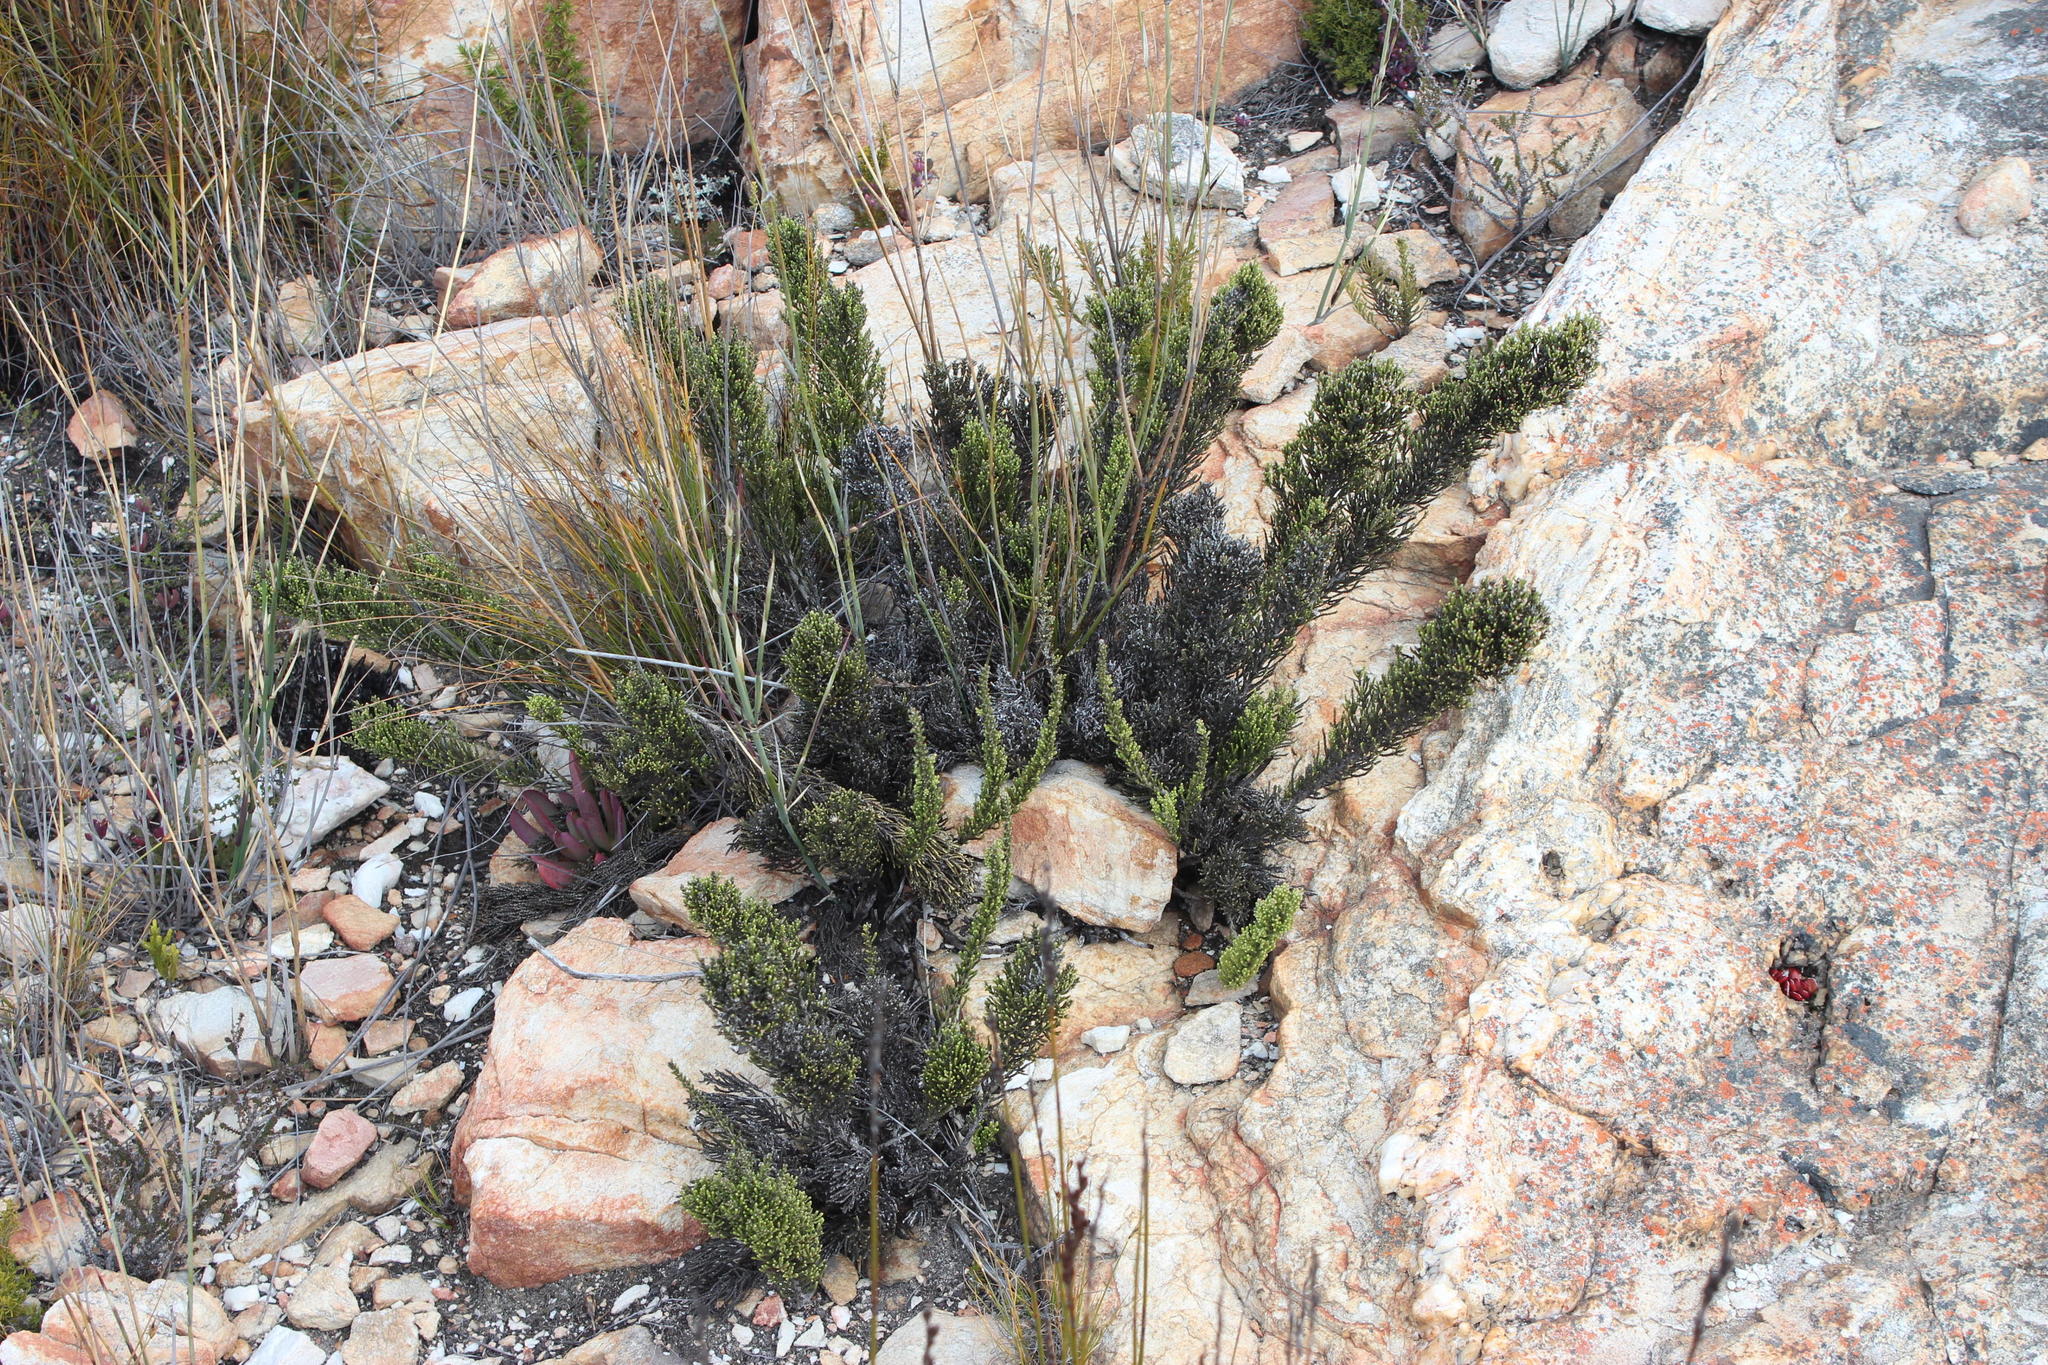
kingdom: Plantae
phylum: Tracheophyta
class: Magnoliopsida
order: Asterales
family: Asteraceae
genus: Dolichothrix
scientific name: Dolichothrix ericoides
